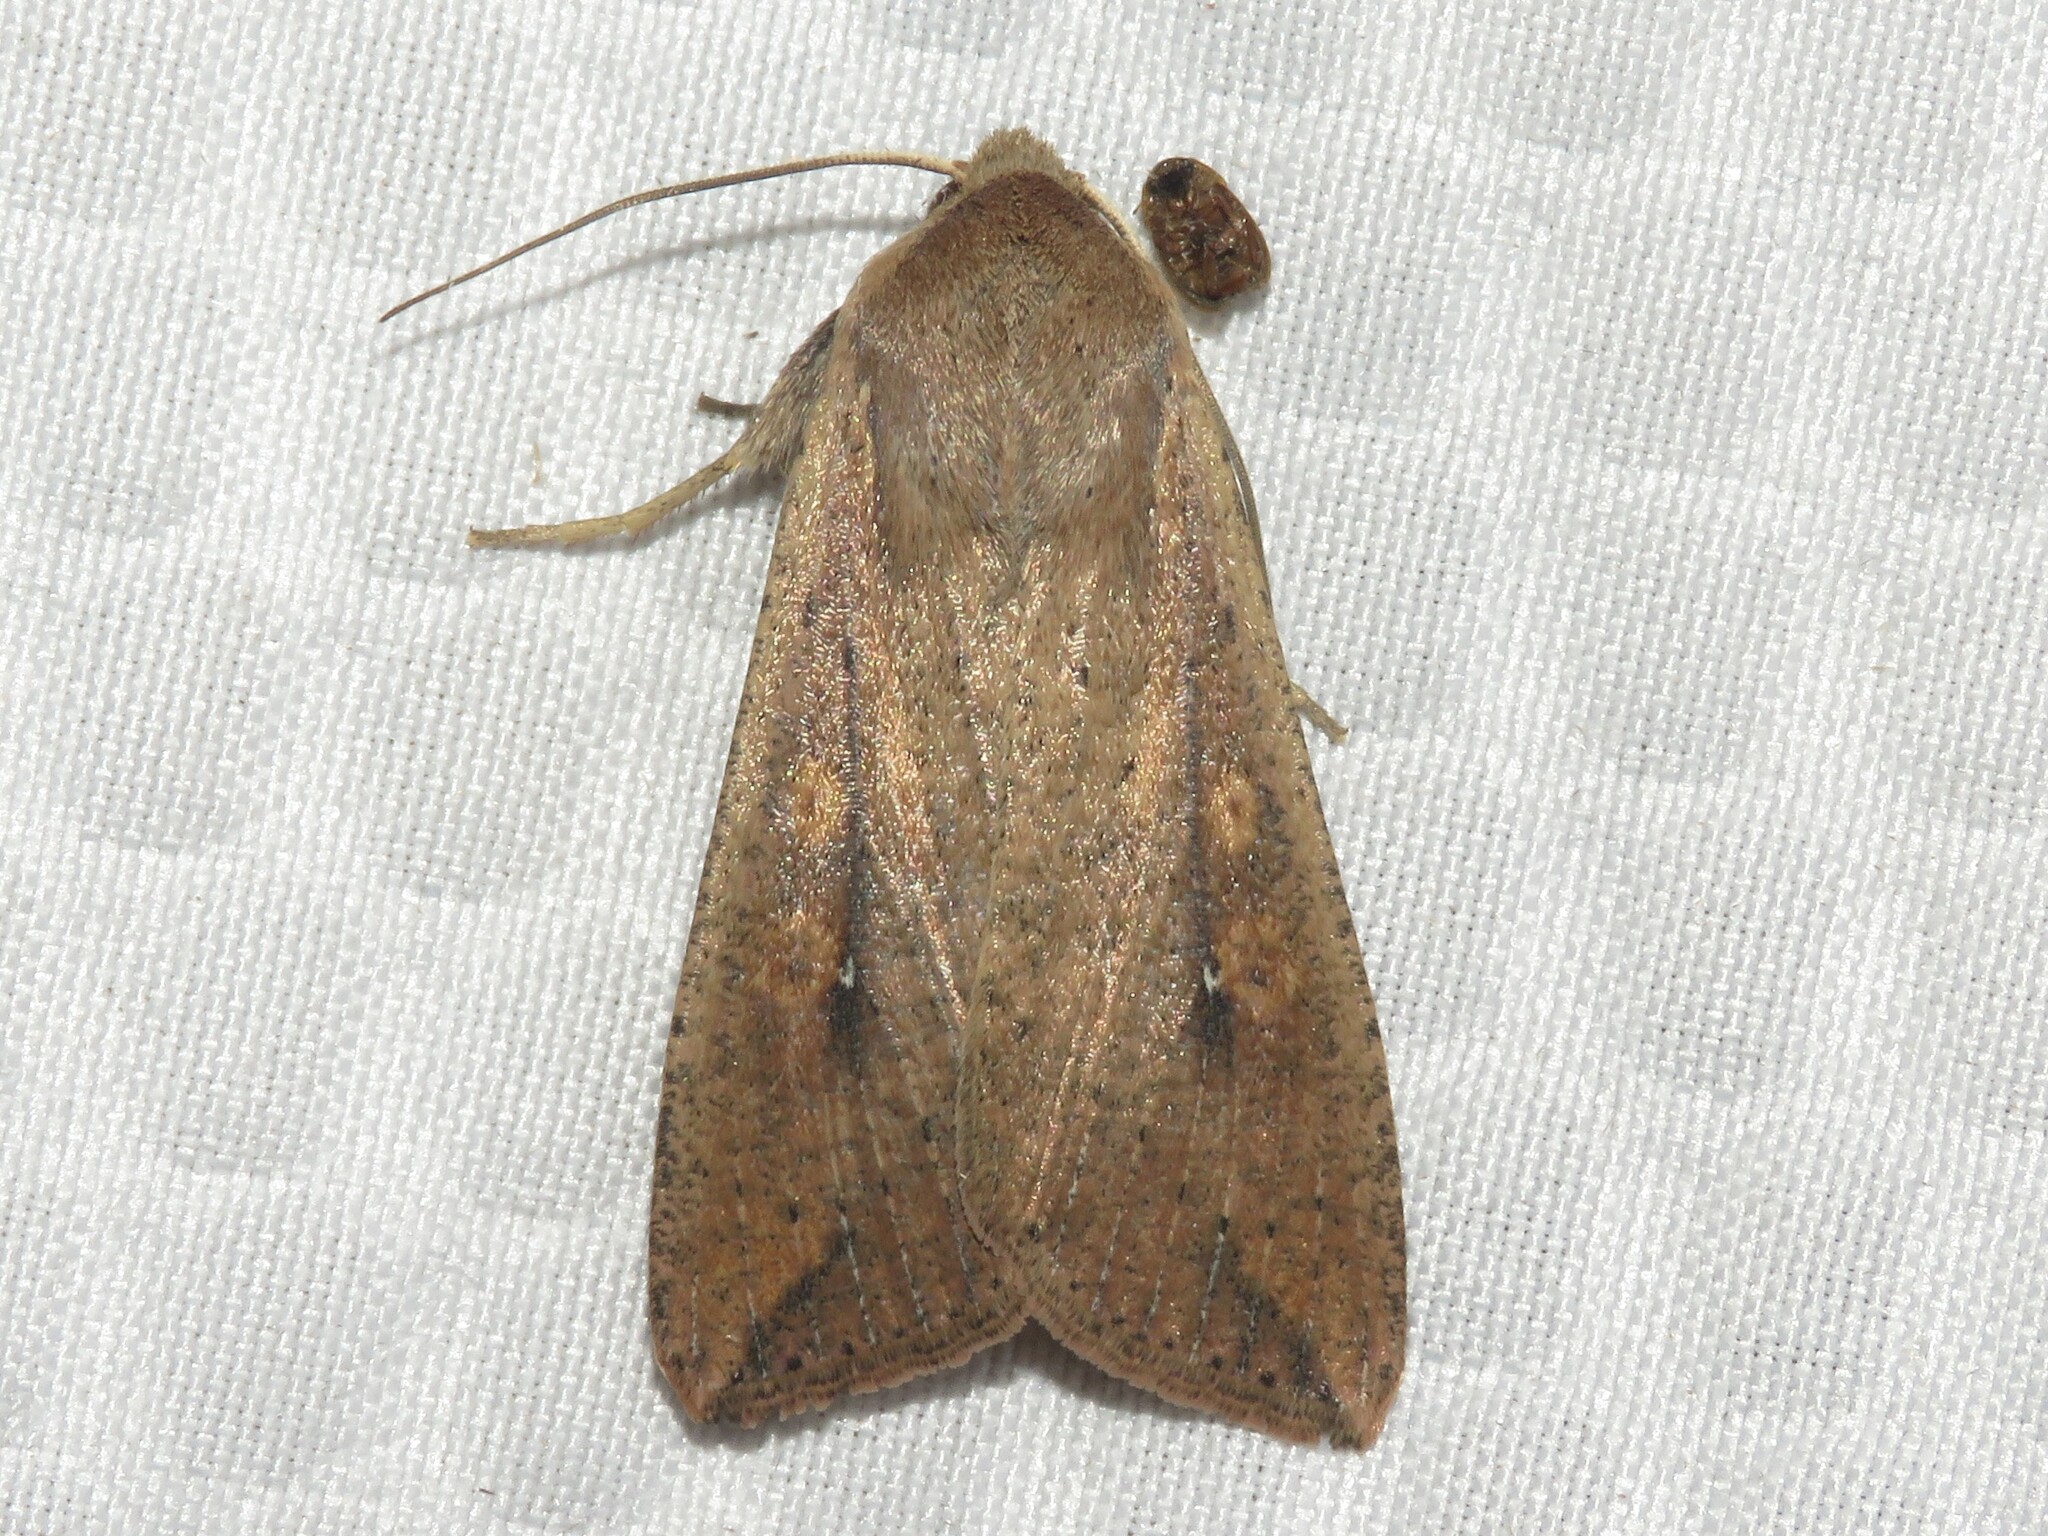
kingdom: Animalia
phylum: Arthropoda
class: Insecta
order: Lepidoptera
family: Noctuidae
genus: Mythimna
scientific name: Mythimna unipuncta
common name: White-speck
